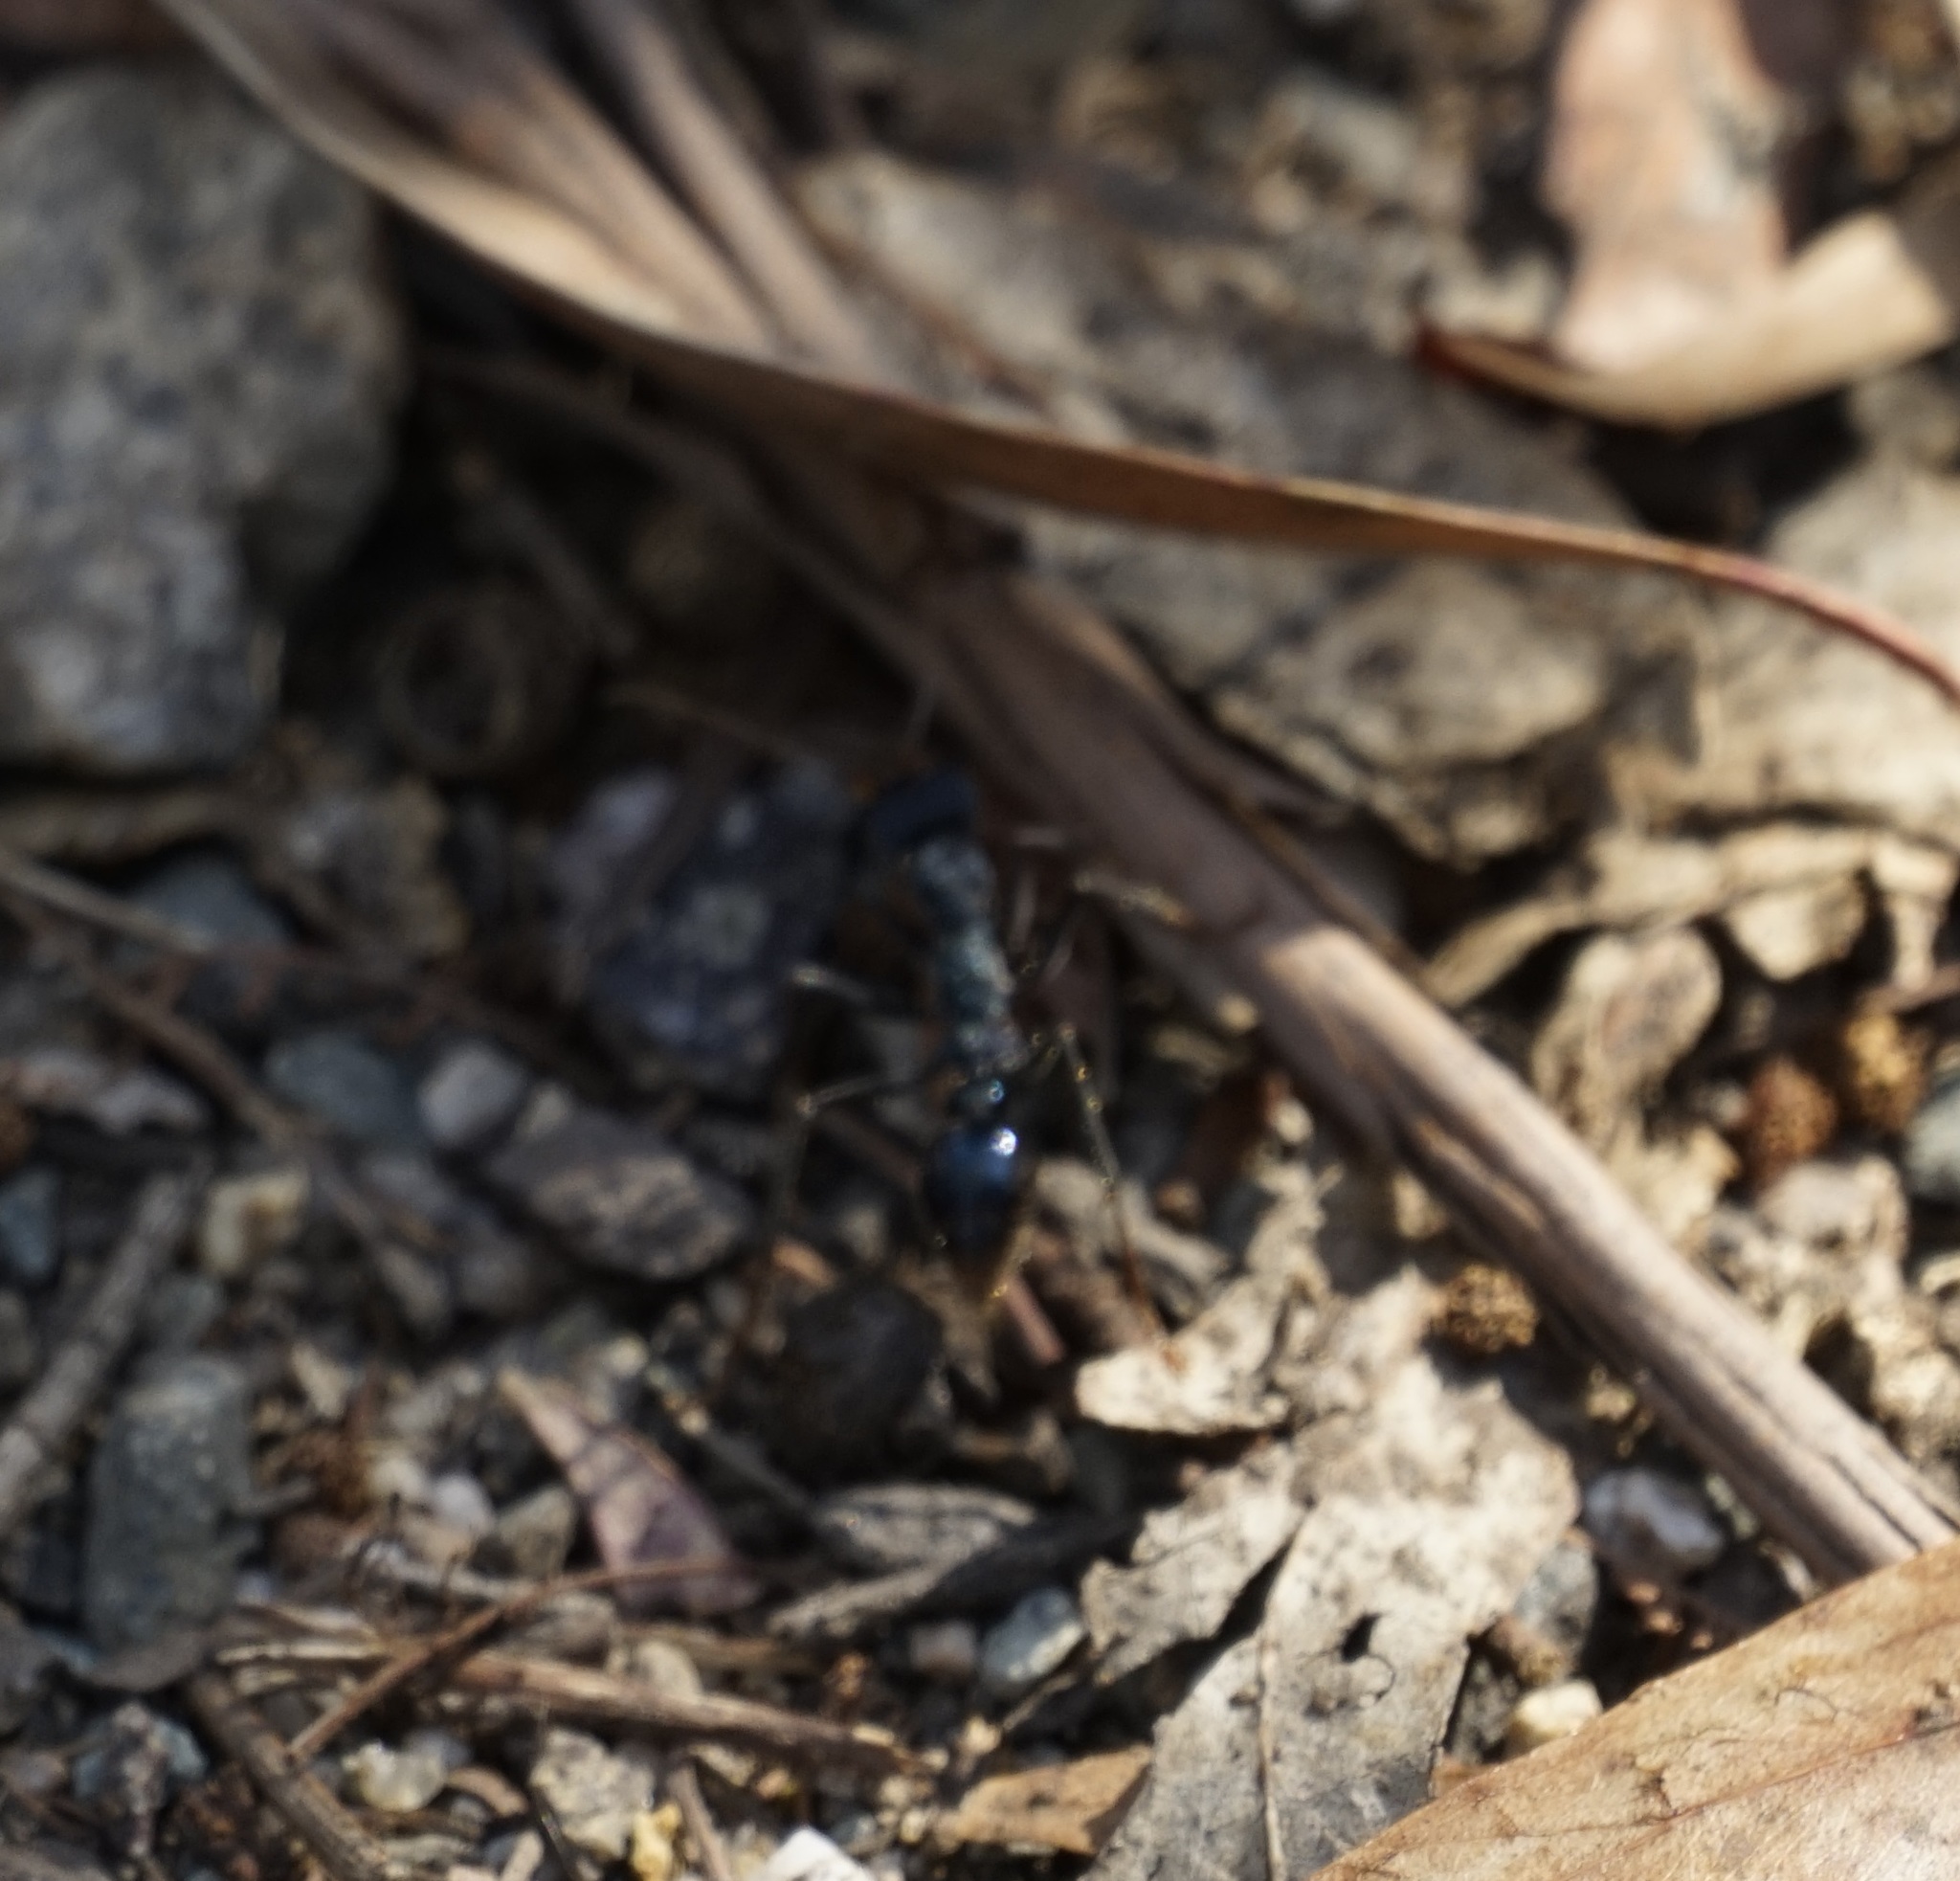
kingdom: Animalia
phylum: Arthropoda
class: Insecta
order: Hymenoptera
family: Formicidae
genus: Myrmecia
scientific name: Myrmecia tarsata
